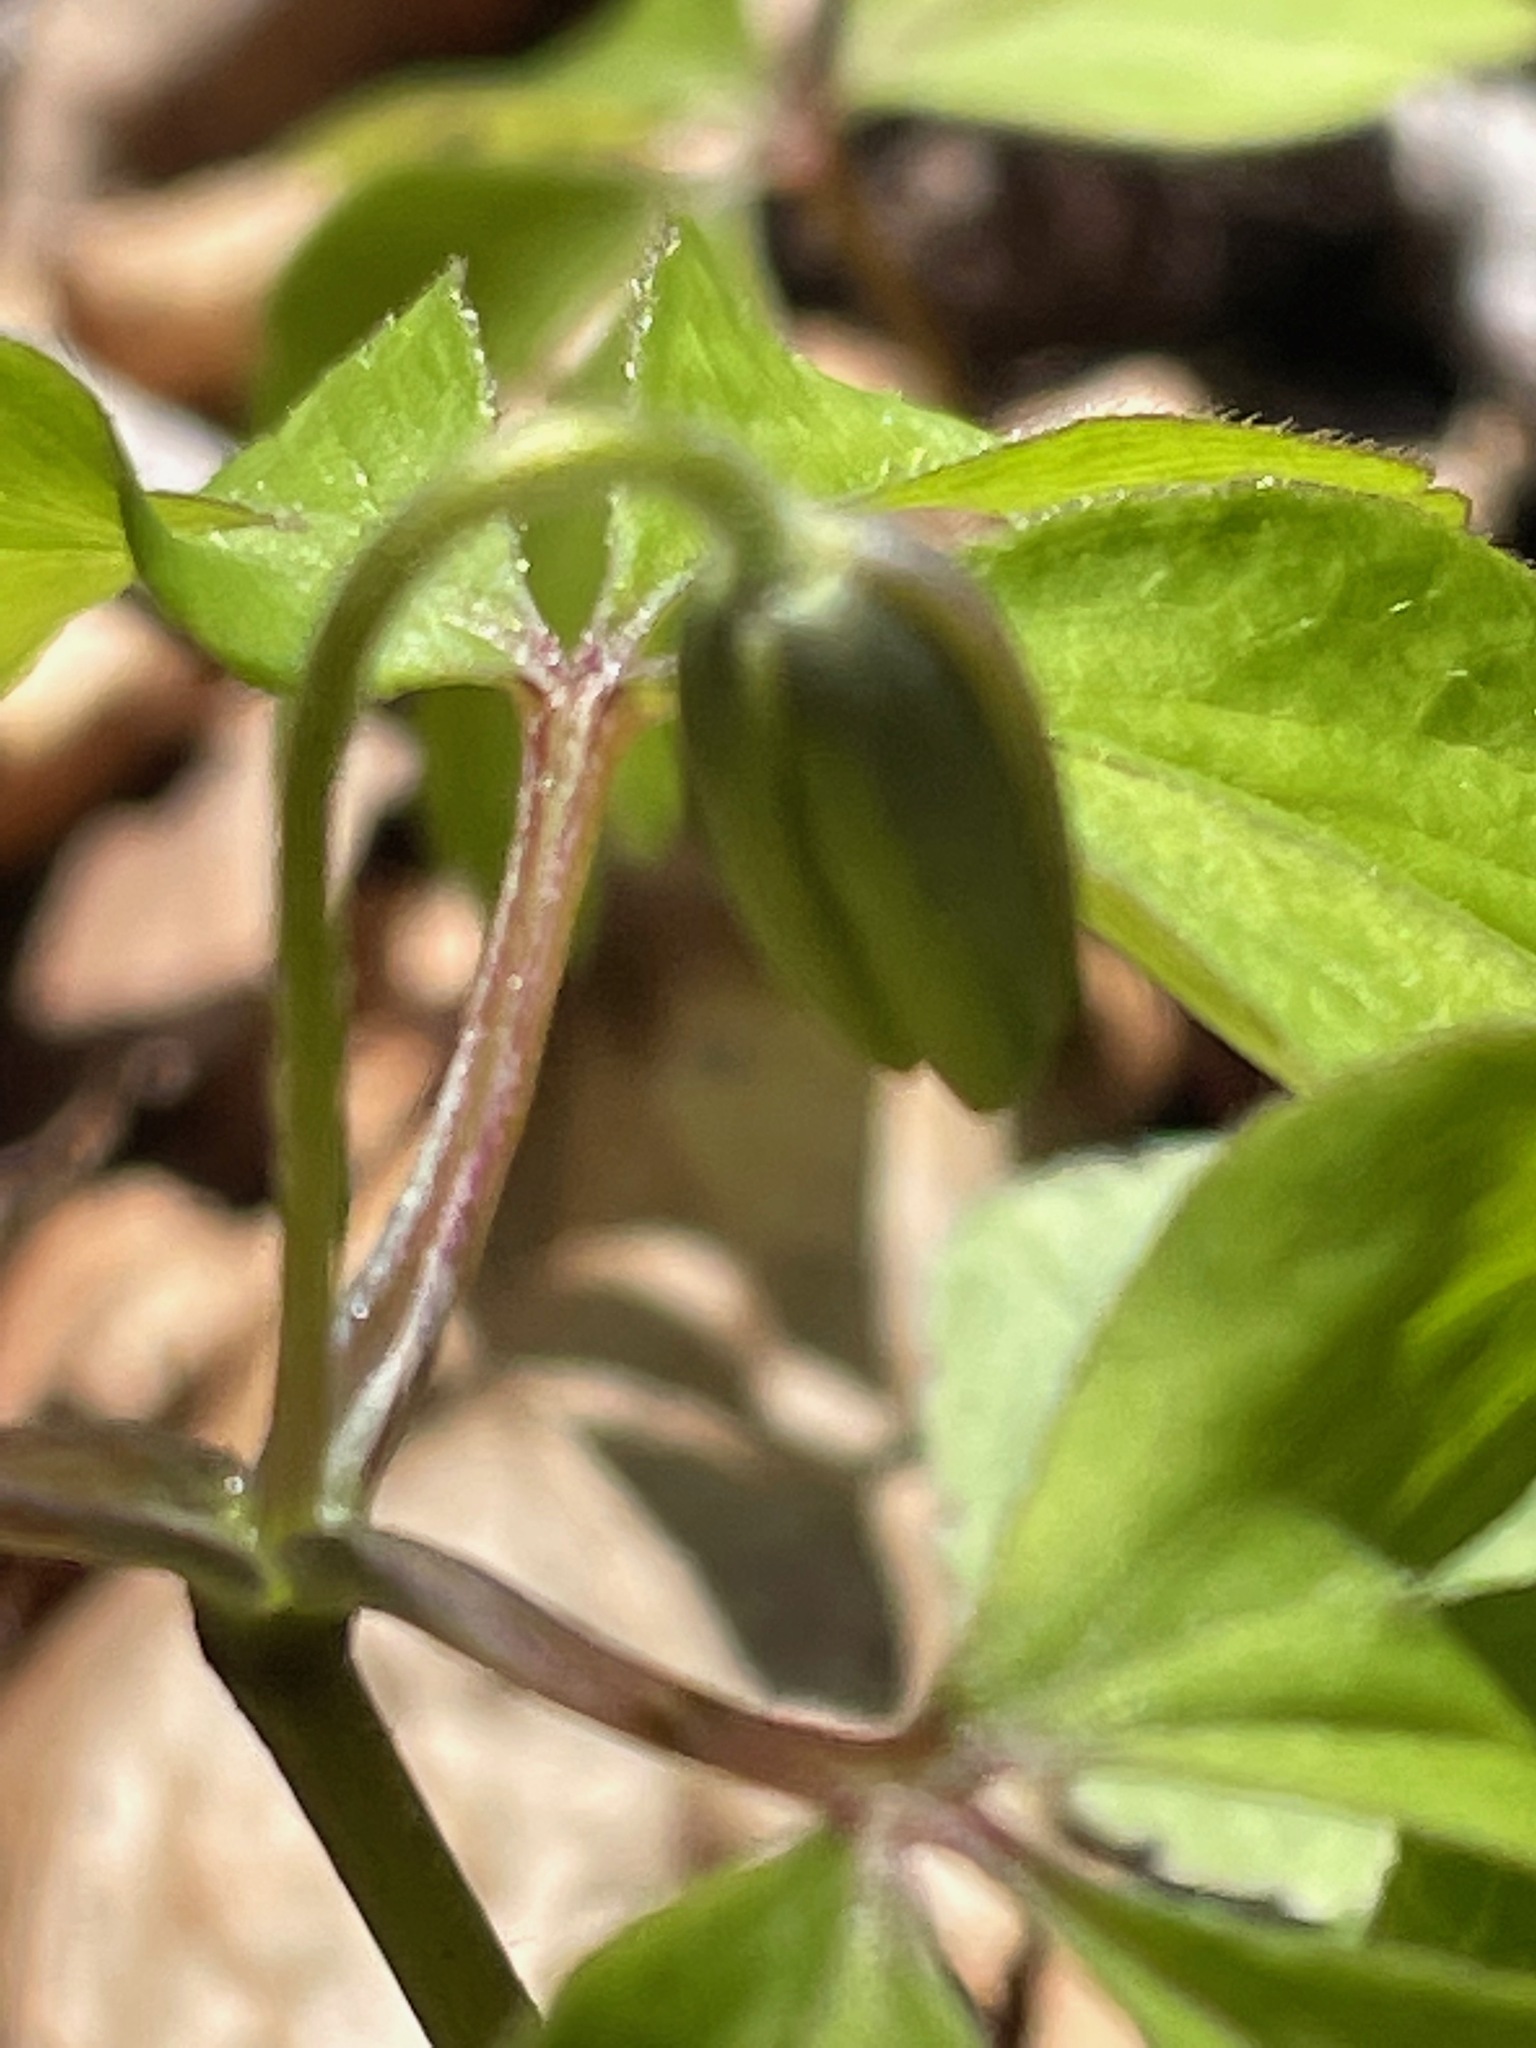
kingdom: Plantae
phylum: Tracheophyta
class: Magnoliopsida
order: Ranunculales
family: Ranunculaceae
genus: Anemone
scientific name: Anemone quinquefolia
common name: Wood anemone
